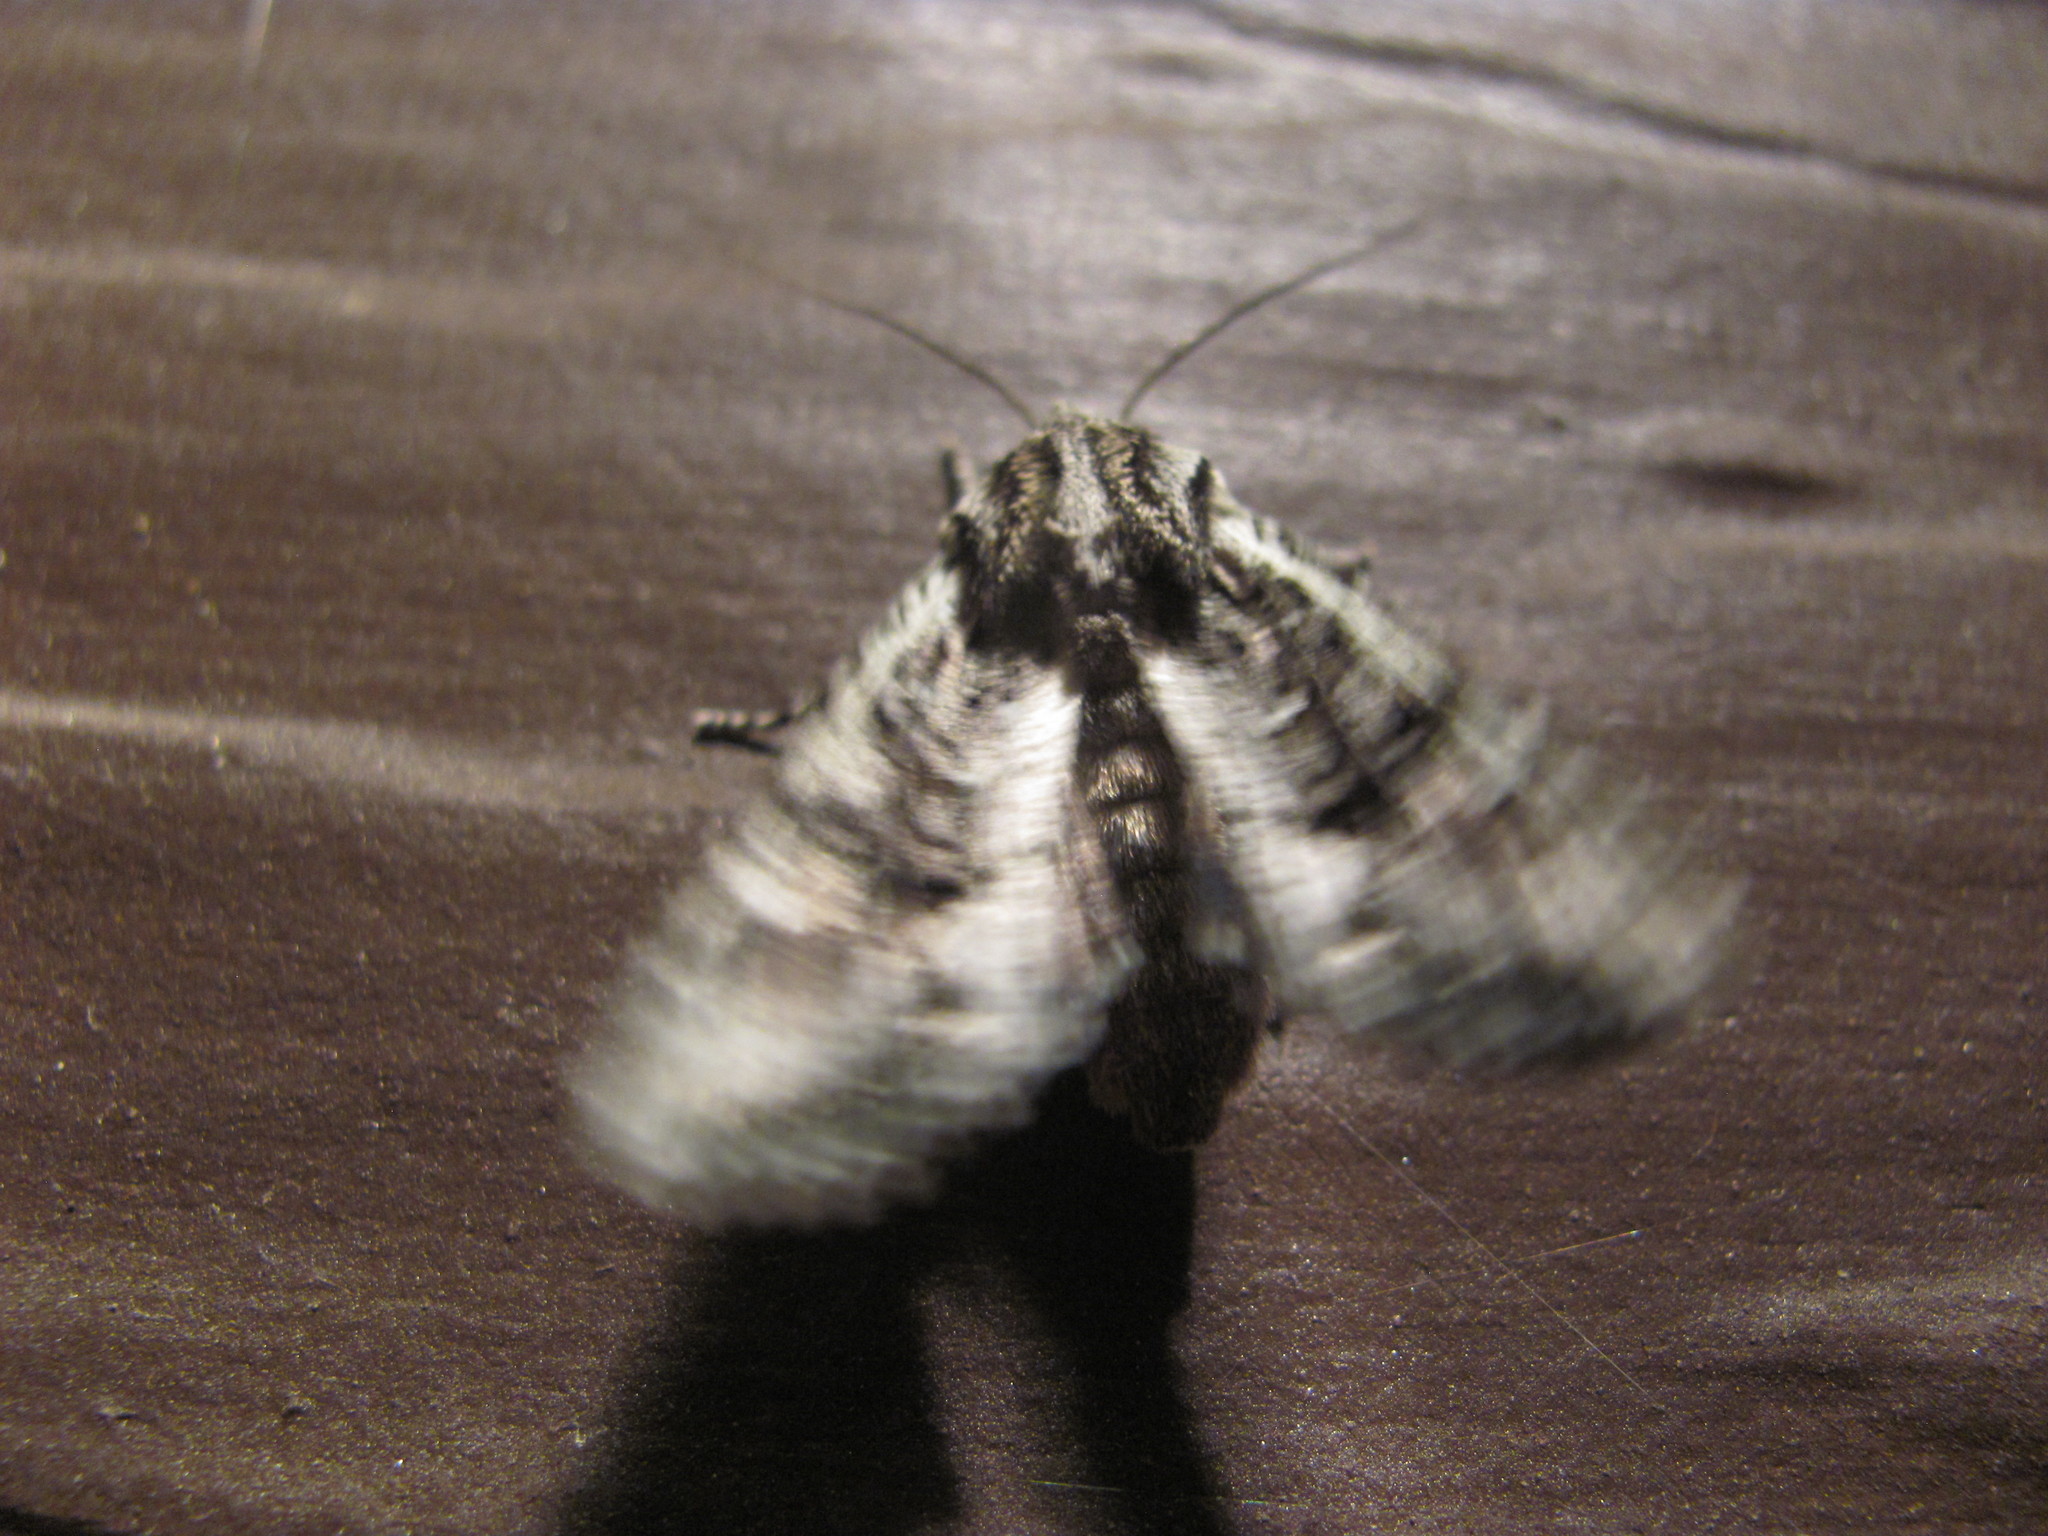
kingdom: Animalia
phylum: Arthropoda
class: Insecta
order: Lepidoptera
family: Noctuidae
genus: Ichneutica
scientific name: Ichneutica mutans
